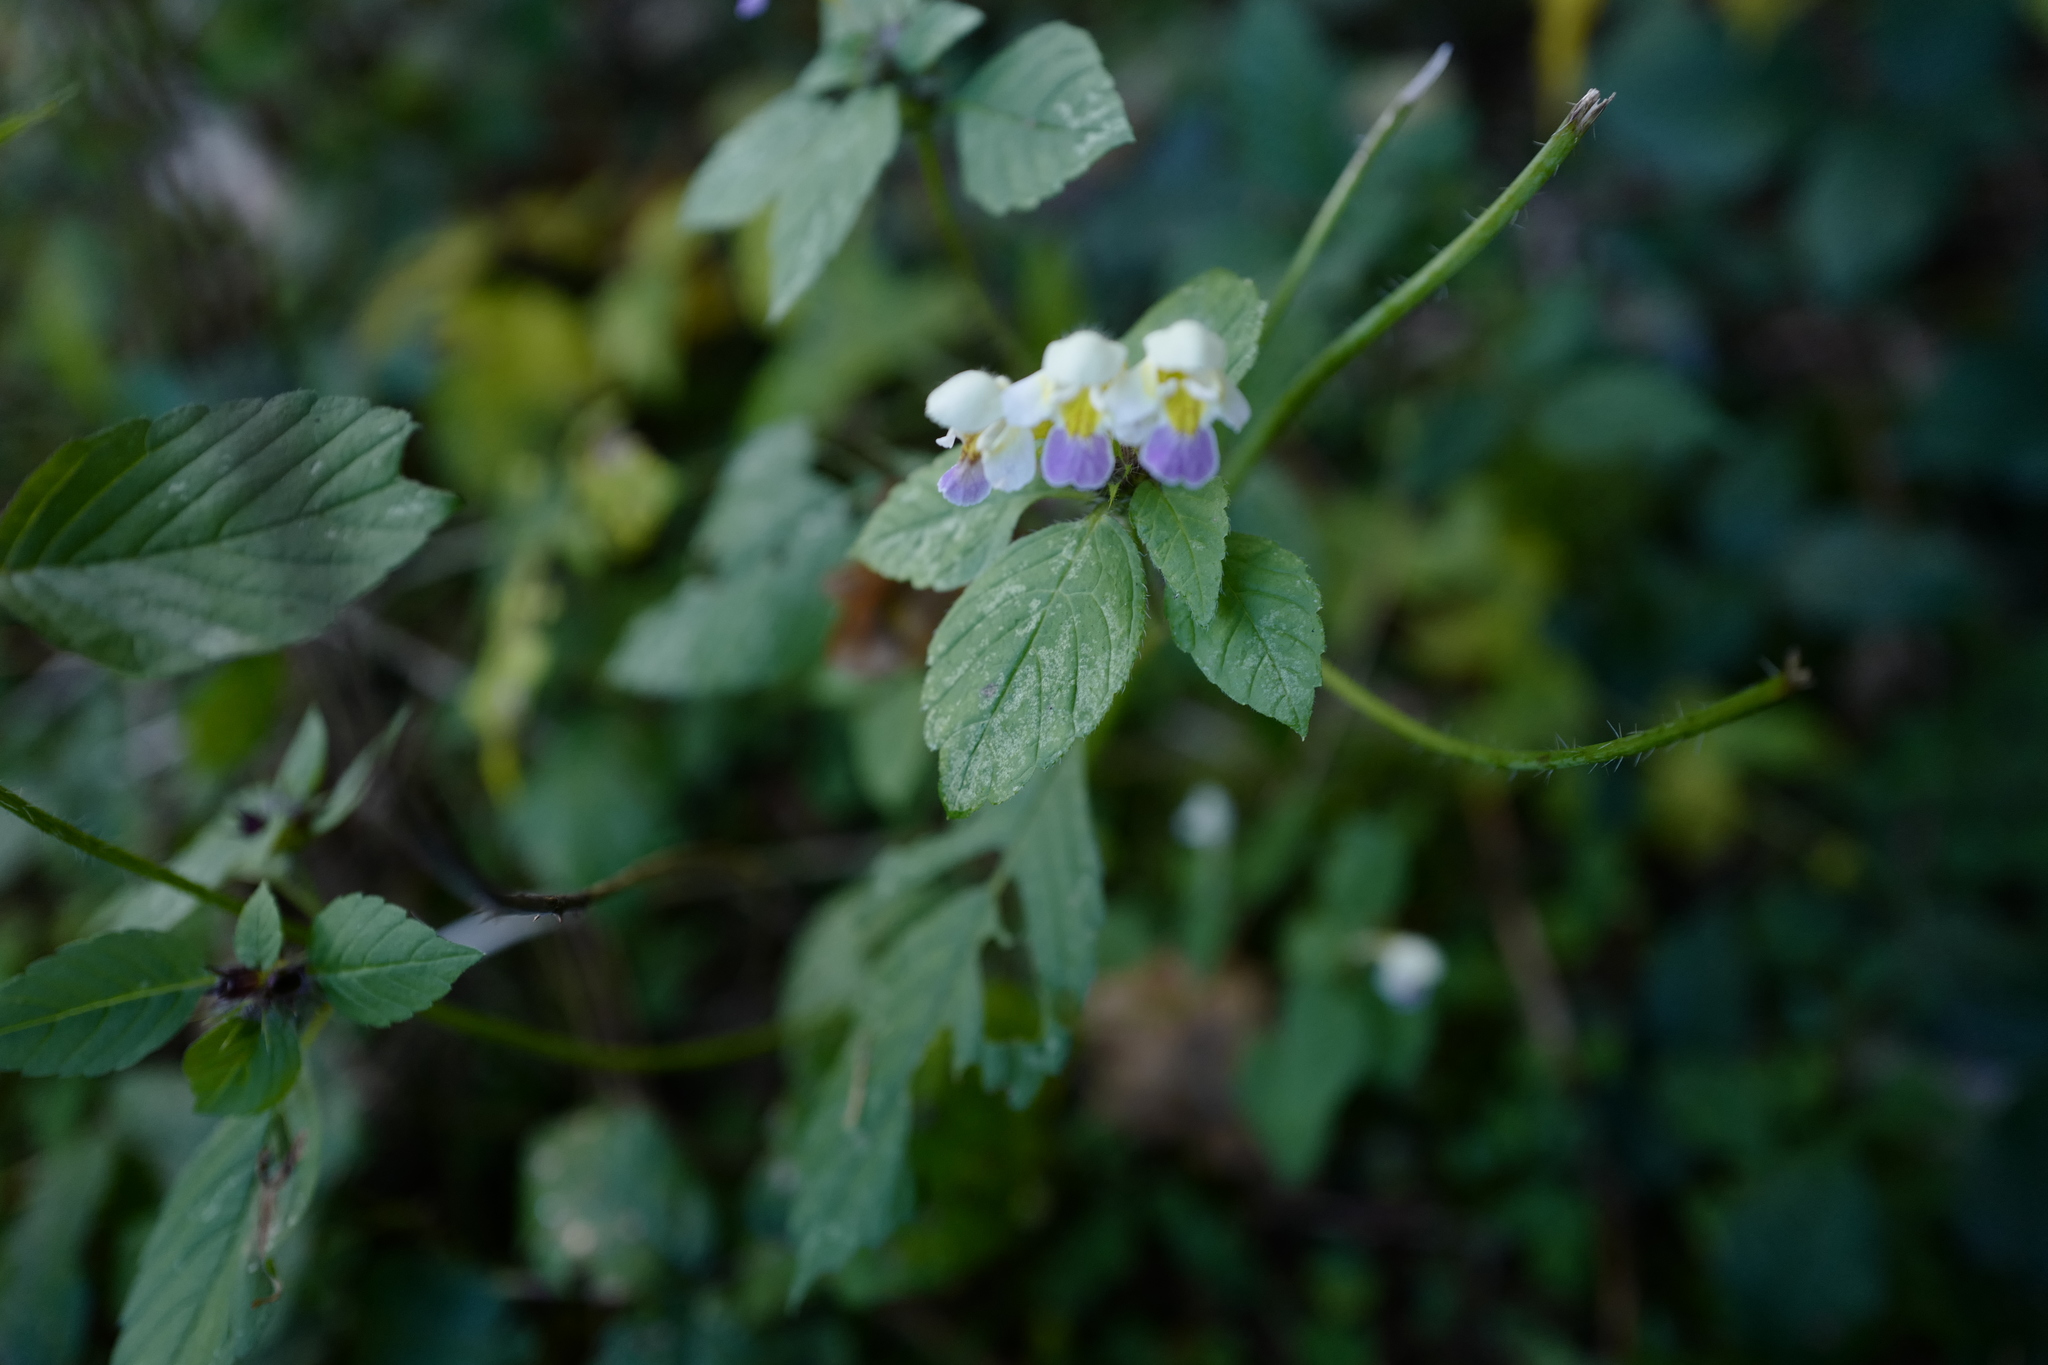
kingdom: Plantae
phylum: Tracheophyta
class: Magnoliopsida
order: Lamiales
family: Lamiaceae
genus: Galeopsis
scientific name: Galeopsis speciosa
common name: Large-flowered hemp-nettle
